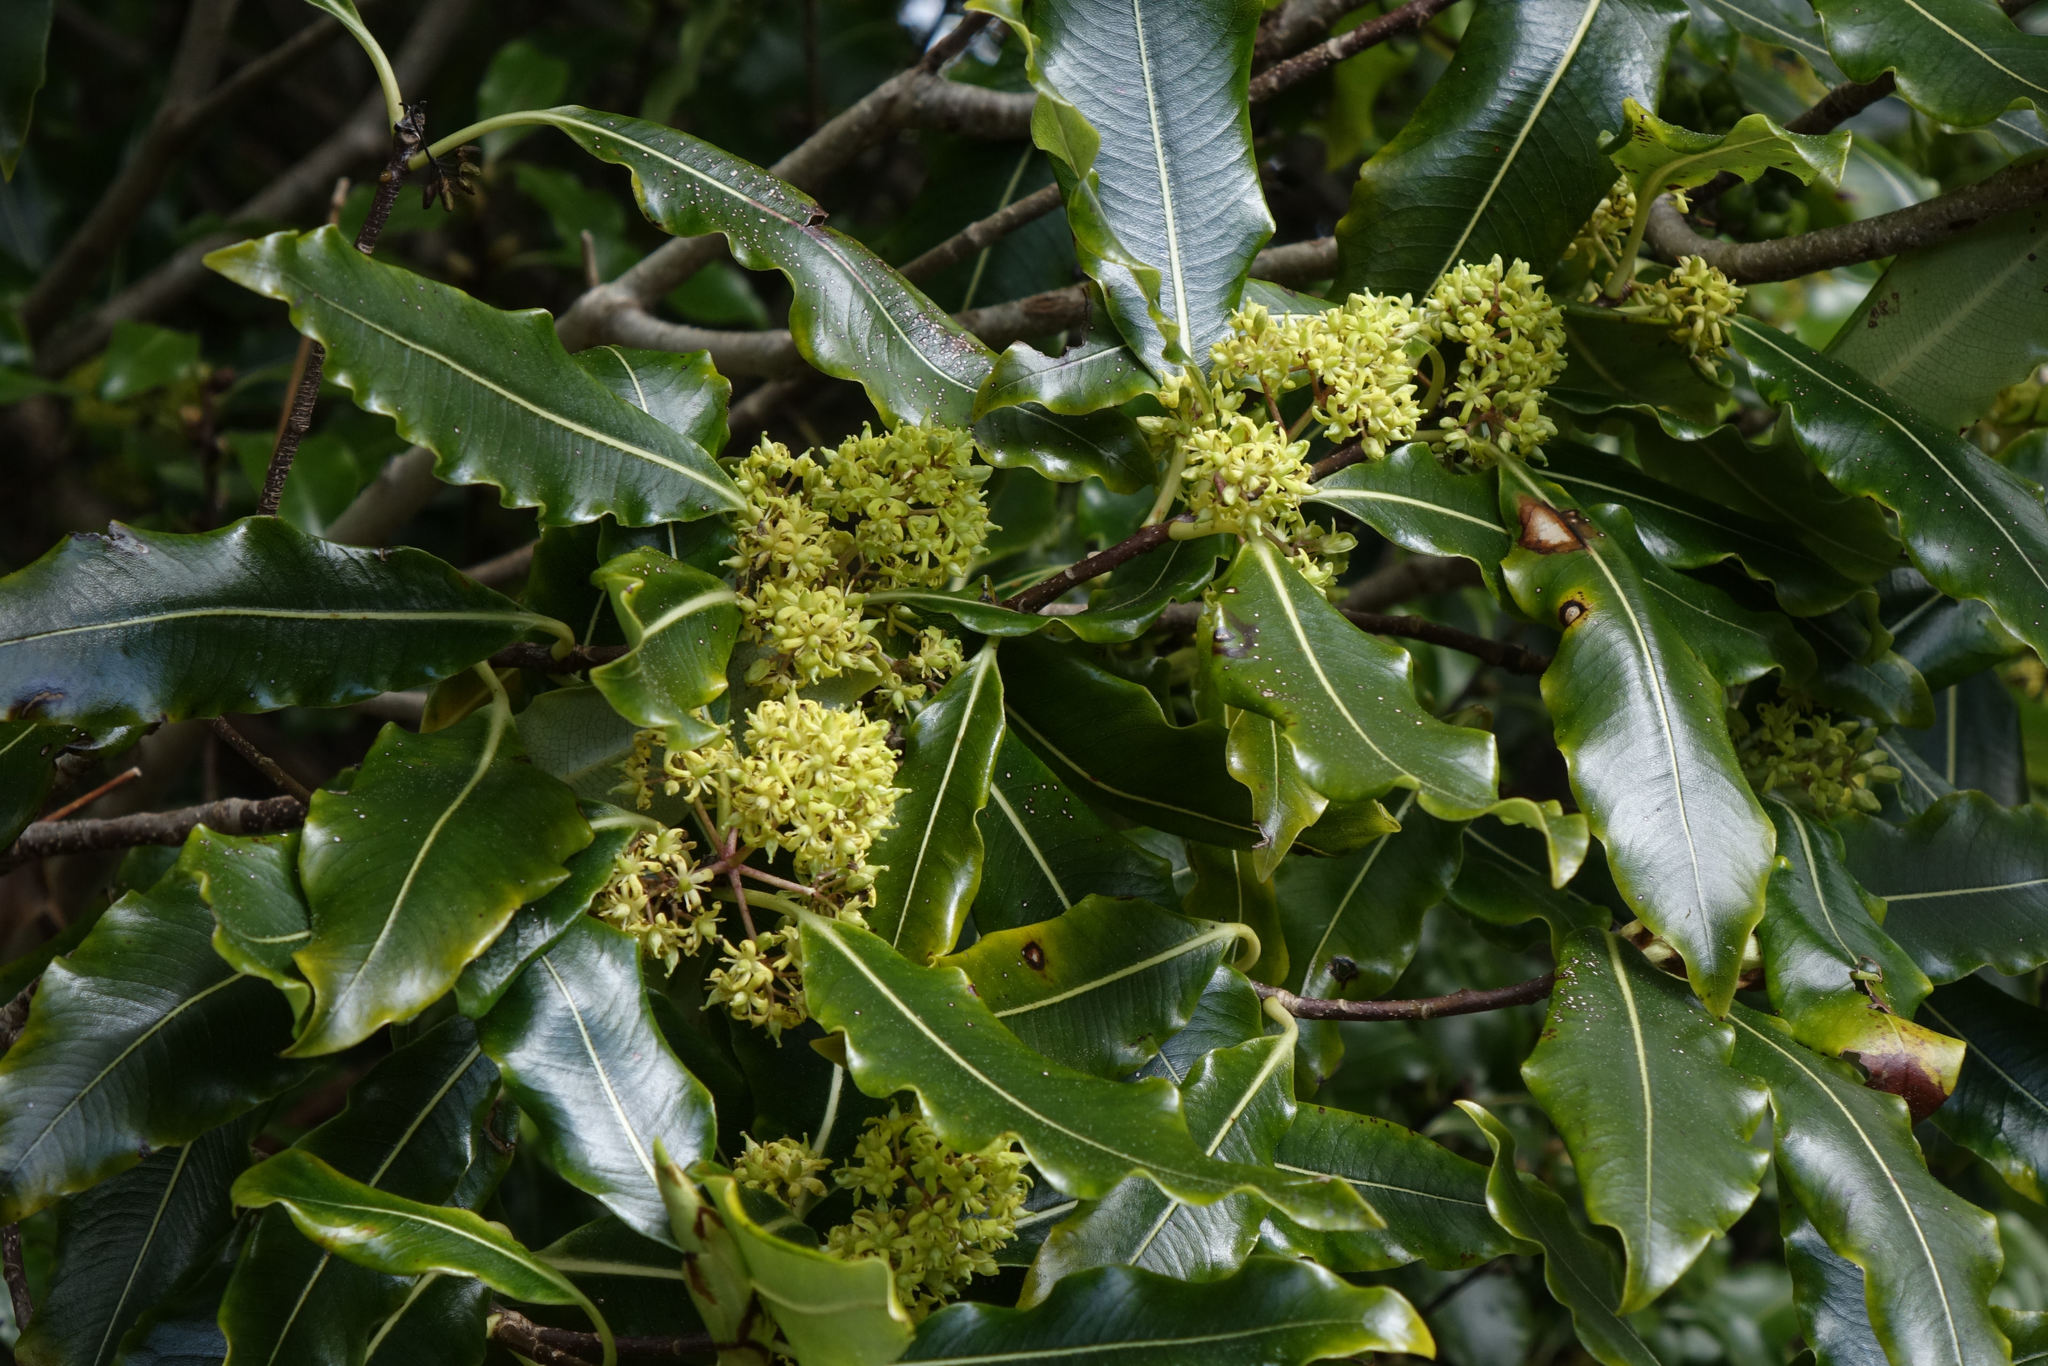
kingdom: Plantae
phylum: Tracheophyta
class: Magnoliopsida
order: Apiales
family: Pittosporaceae
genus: Pittosporum
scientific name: Pittosporum eugenioides
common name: Lemonwood
